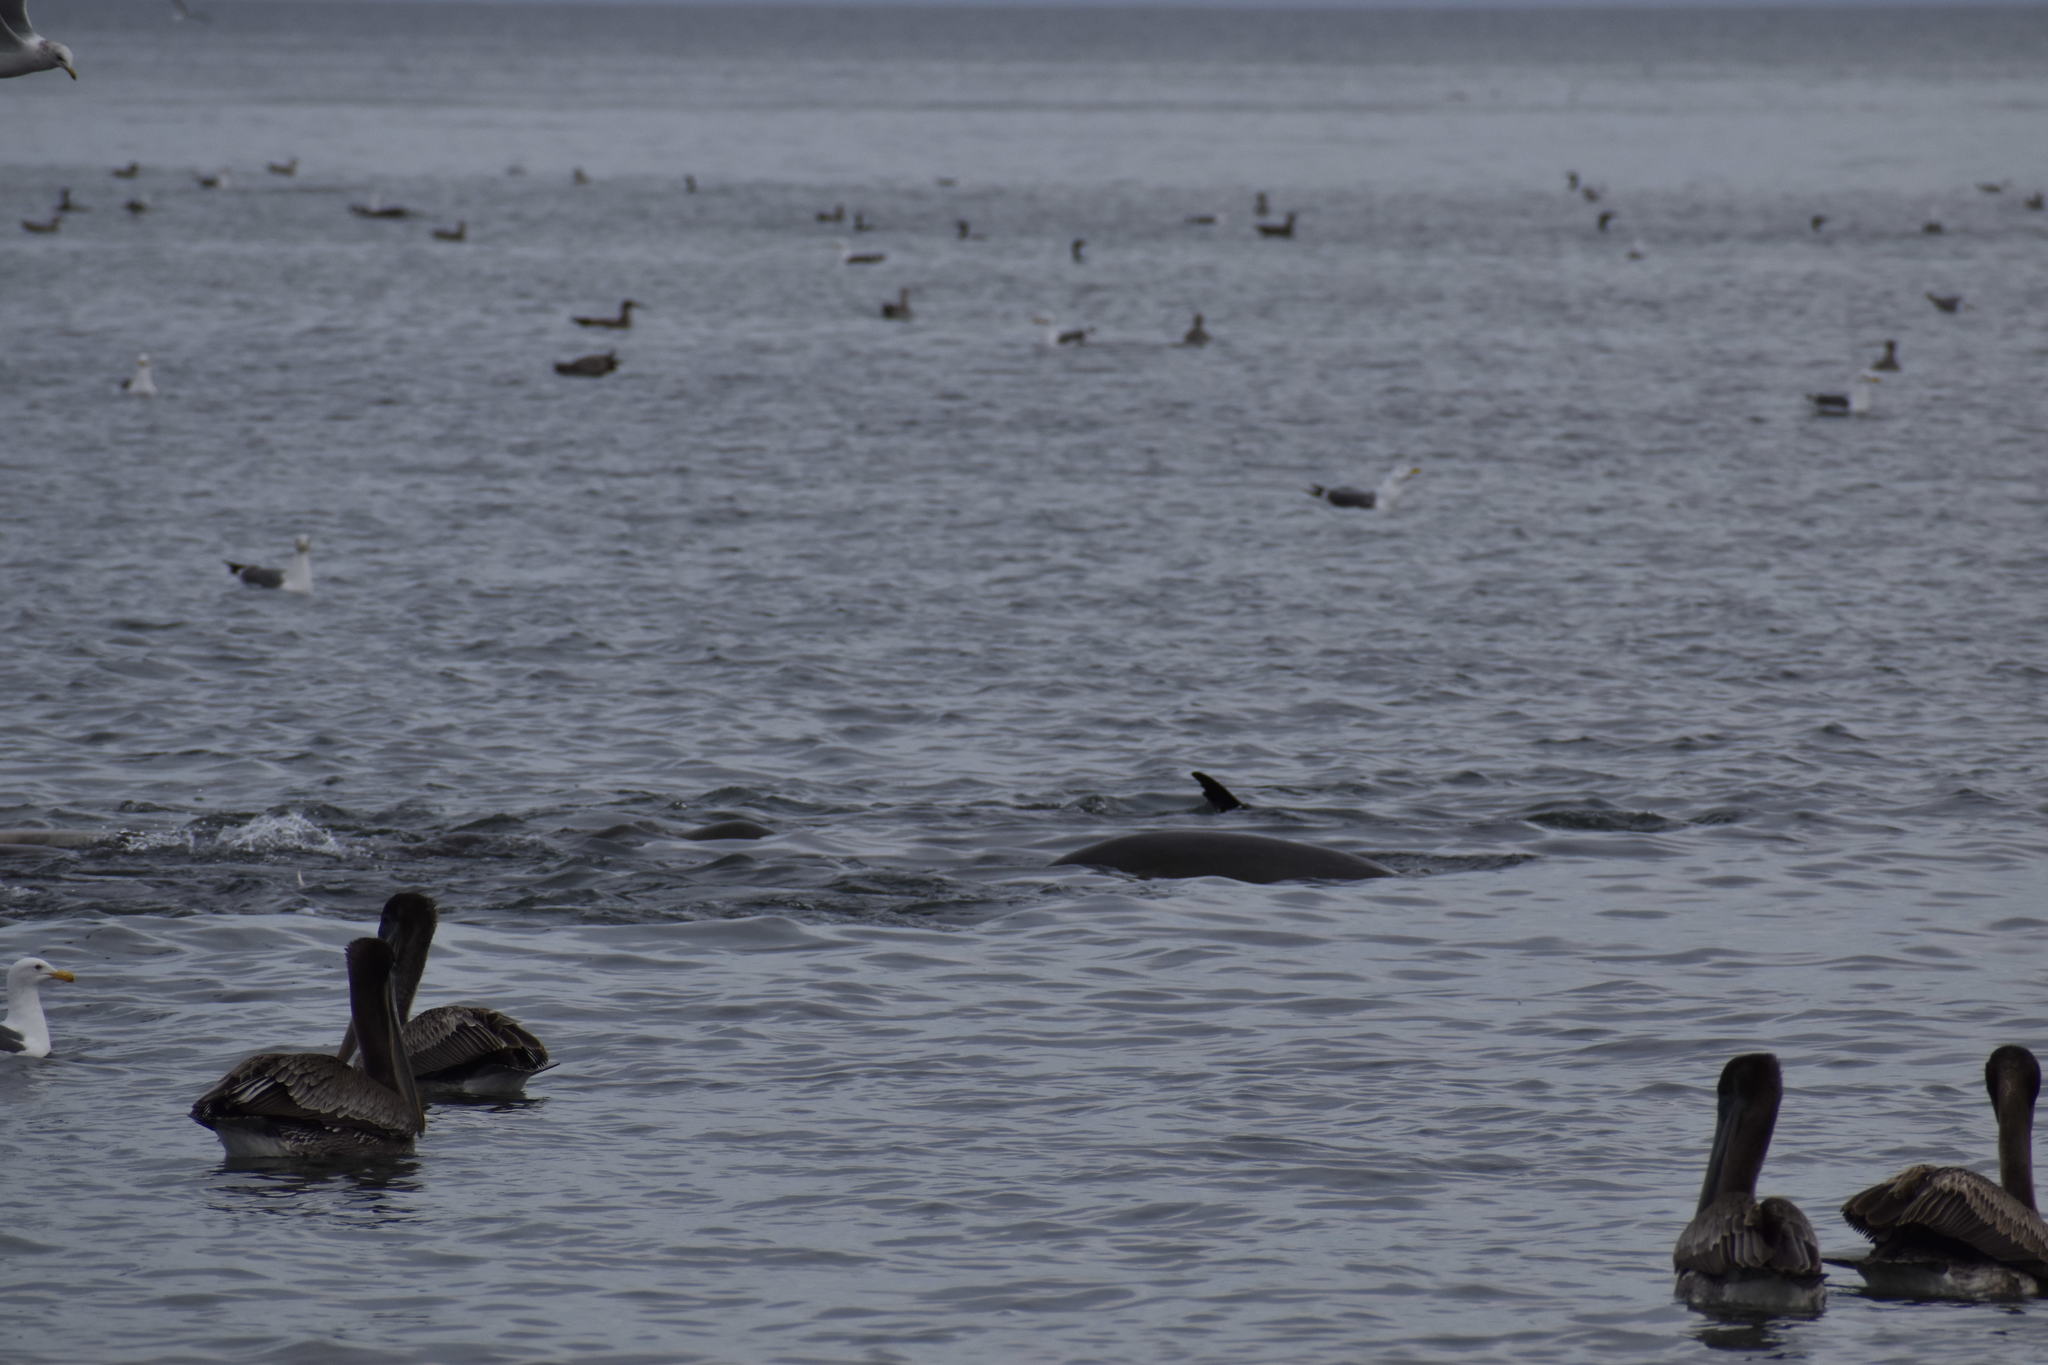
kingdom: Animalia
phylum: Chordata
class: Mammalia
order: Carnivora
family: Otariidae
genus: Zalophus
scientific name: Zalophus californianus
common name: California sea lion
